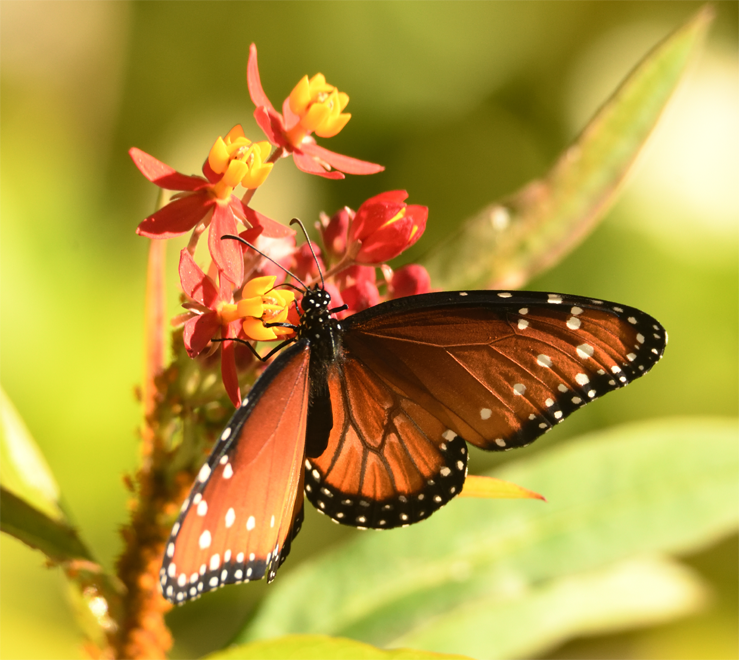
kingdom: Animalia
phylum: Arthropoda
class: Insecta
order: Lepidoptera
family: Nymphalidae
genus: Danaus
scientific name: Danaus gilippus
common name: Queen
